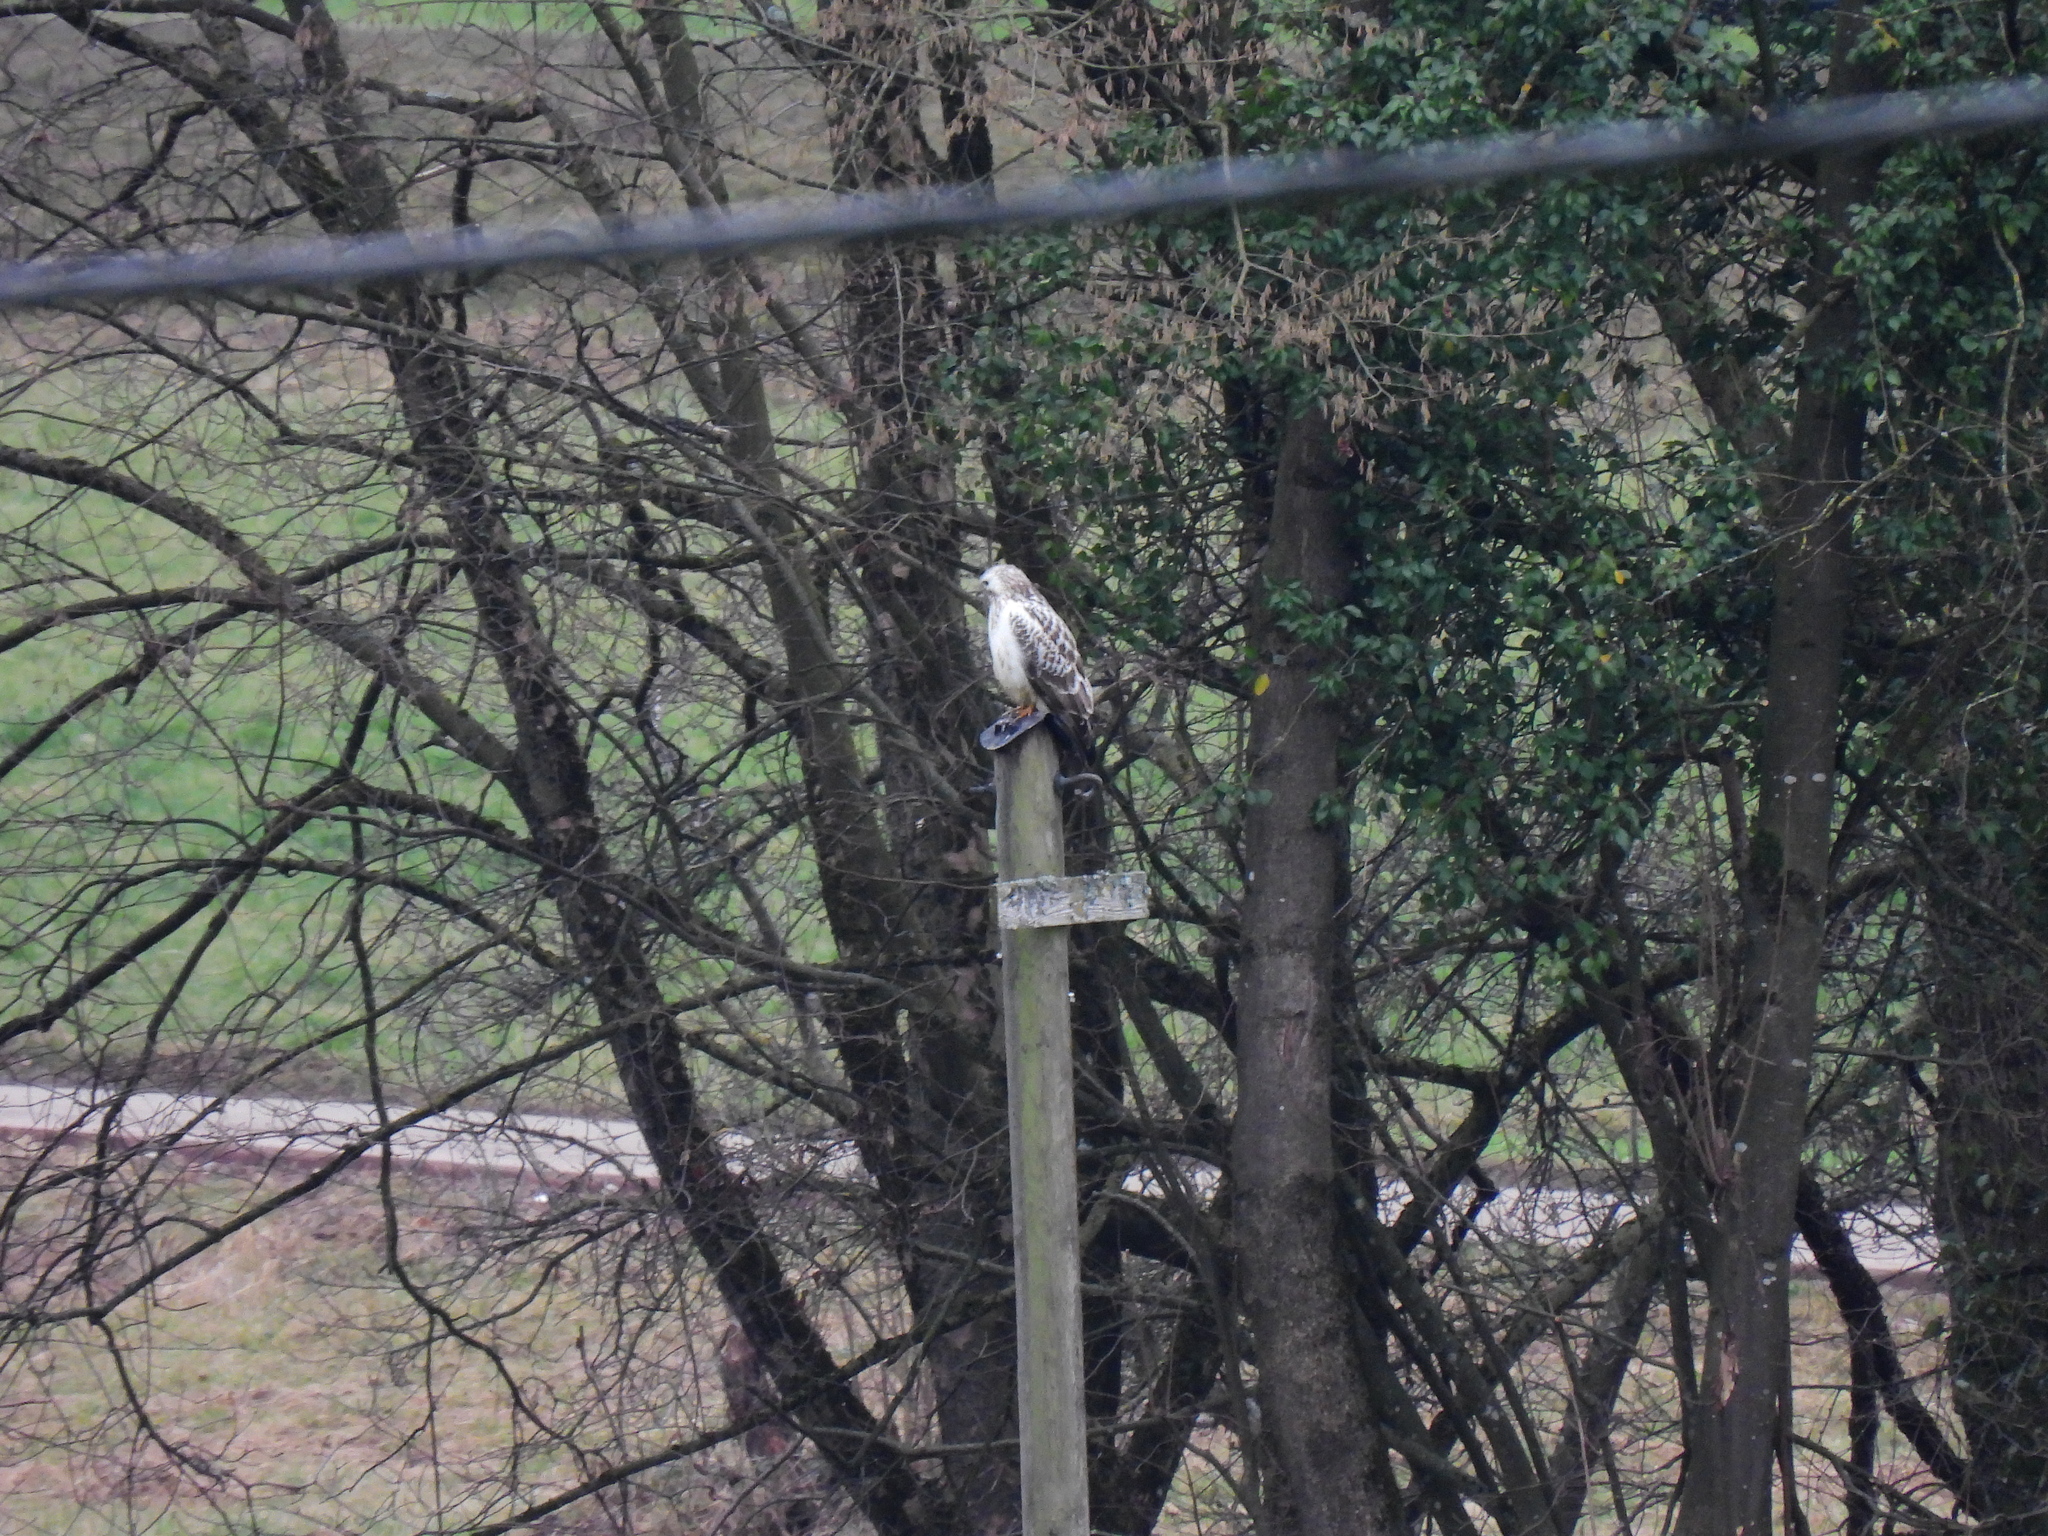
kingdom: Animalia
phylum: Chordata
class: Aves
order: Accipitriformes
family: Accipitridae
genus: Buteo
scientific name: Buteo buteo
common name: Common buzzard
